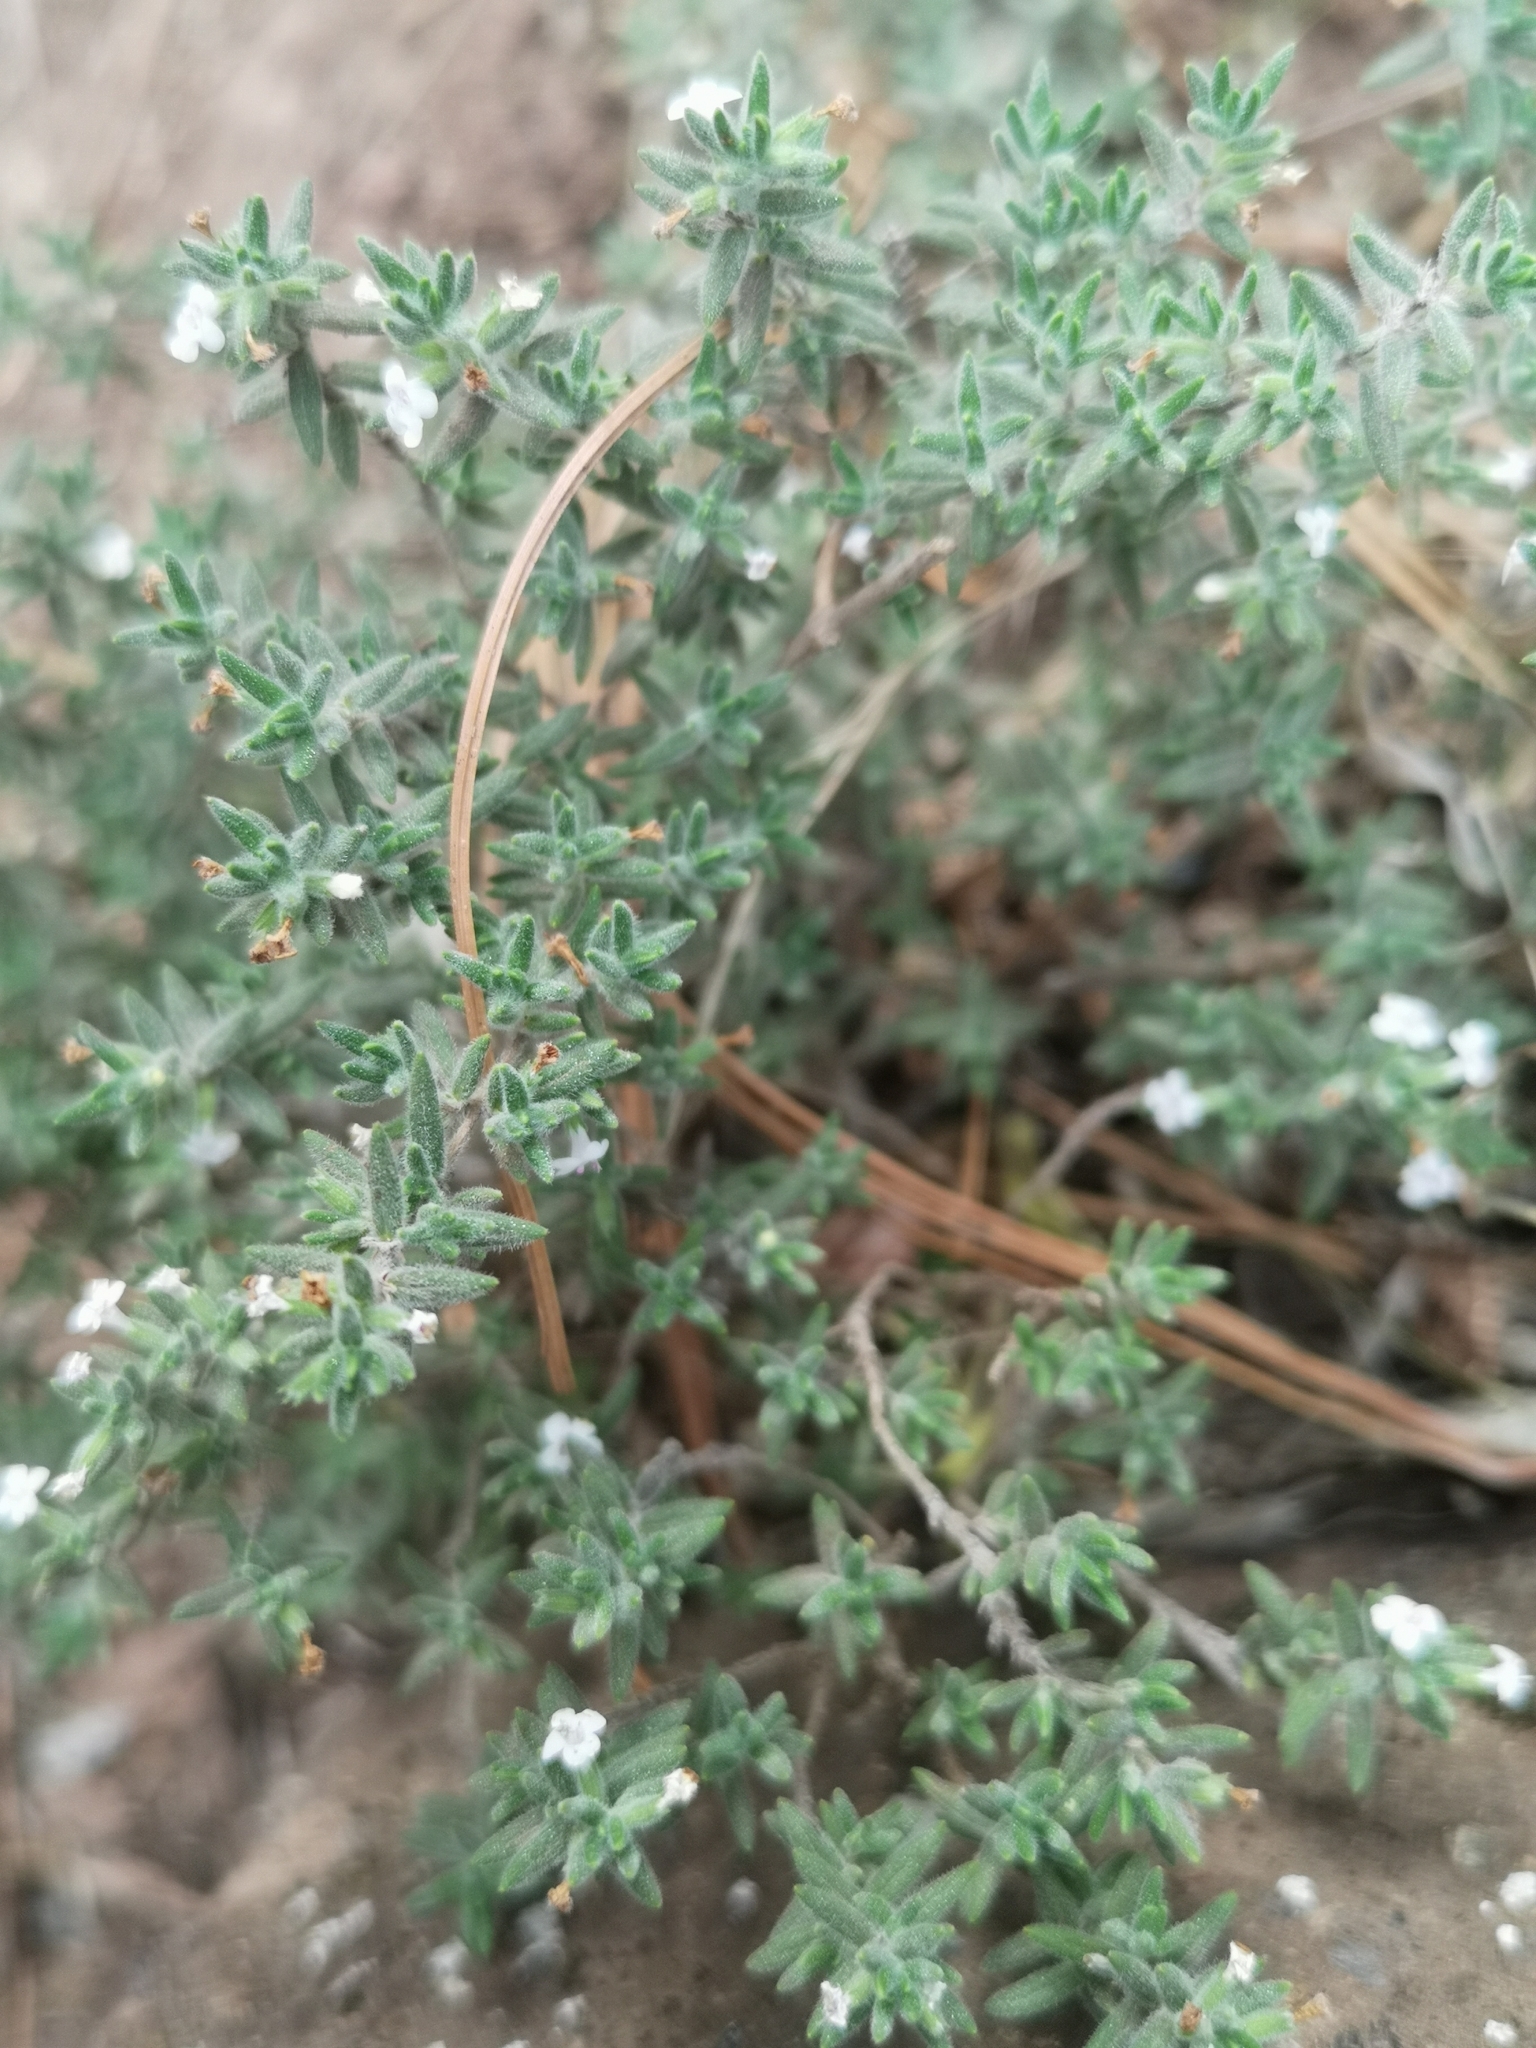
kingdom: Plantae
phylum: Tracheophyta
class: Magnoliopsida
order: Lamiales
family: Lamiaceae
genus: Micromeria
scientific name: Micromeria ericifolia
